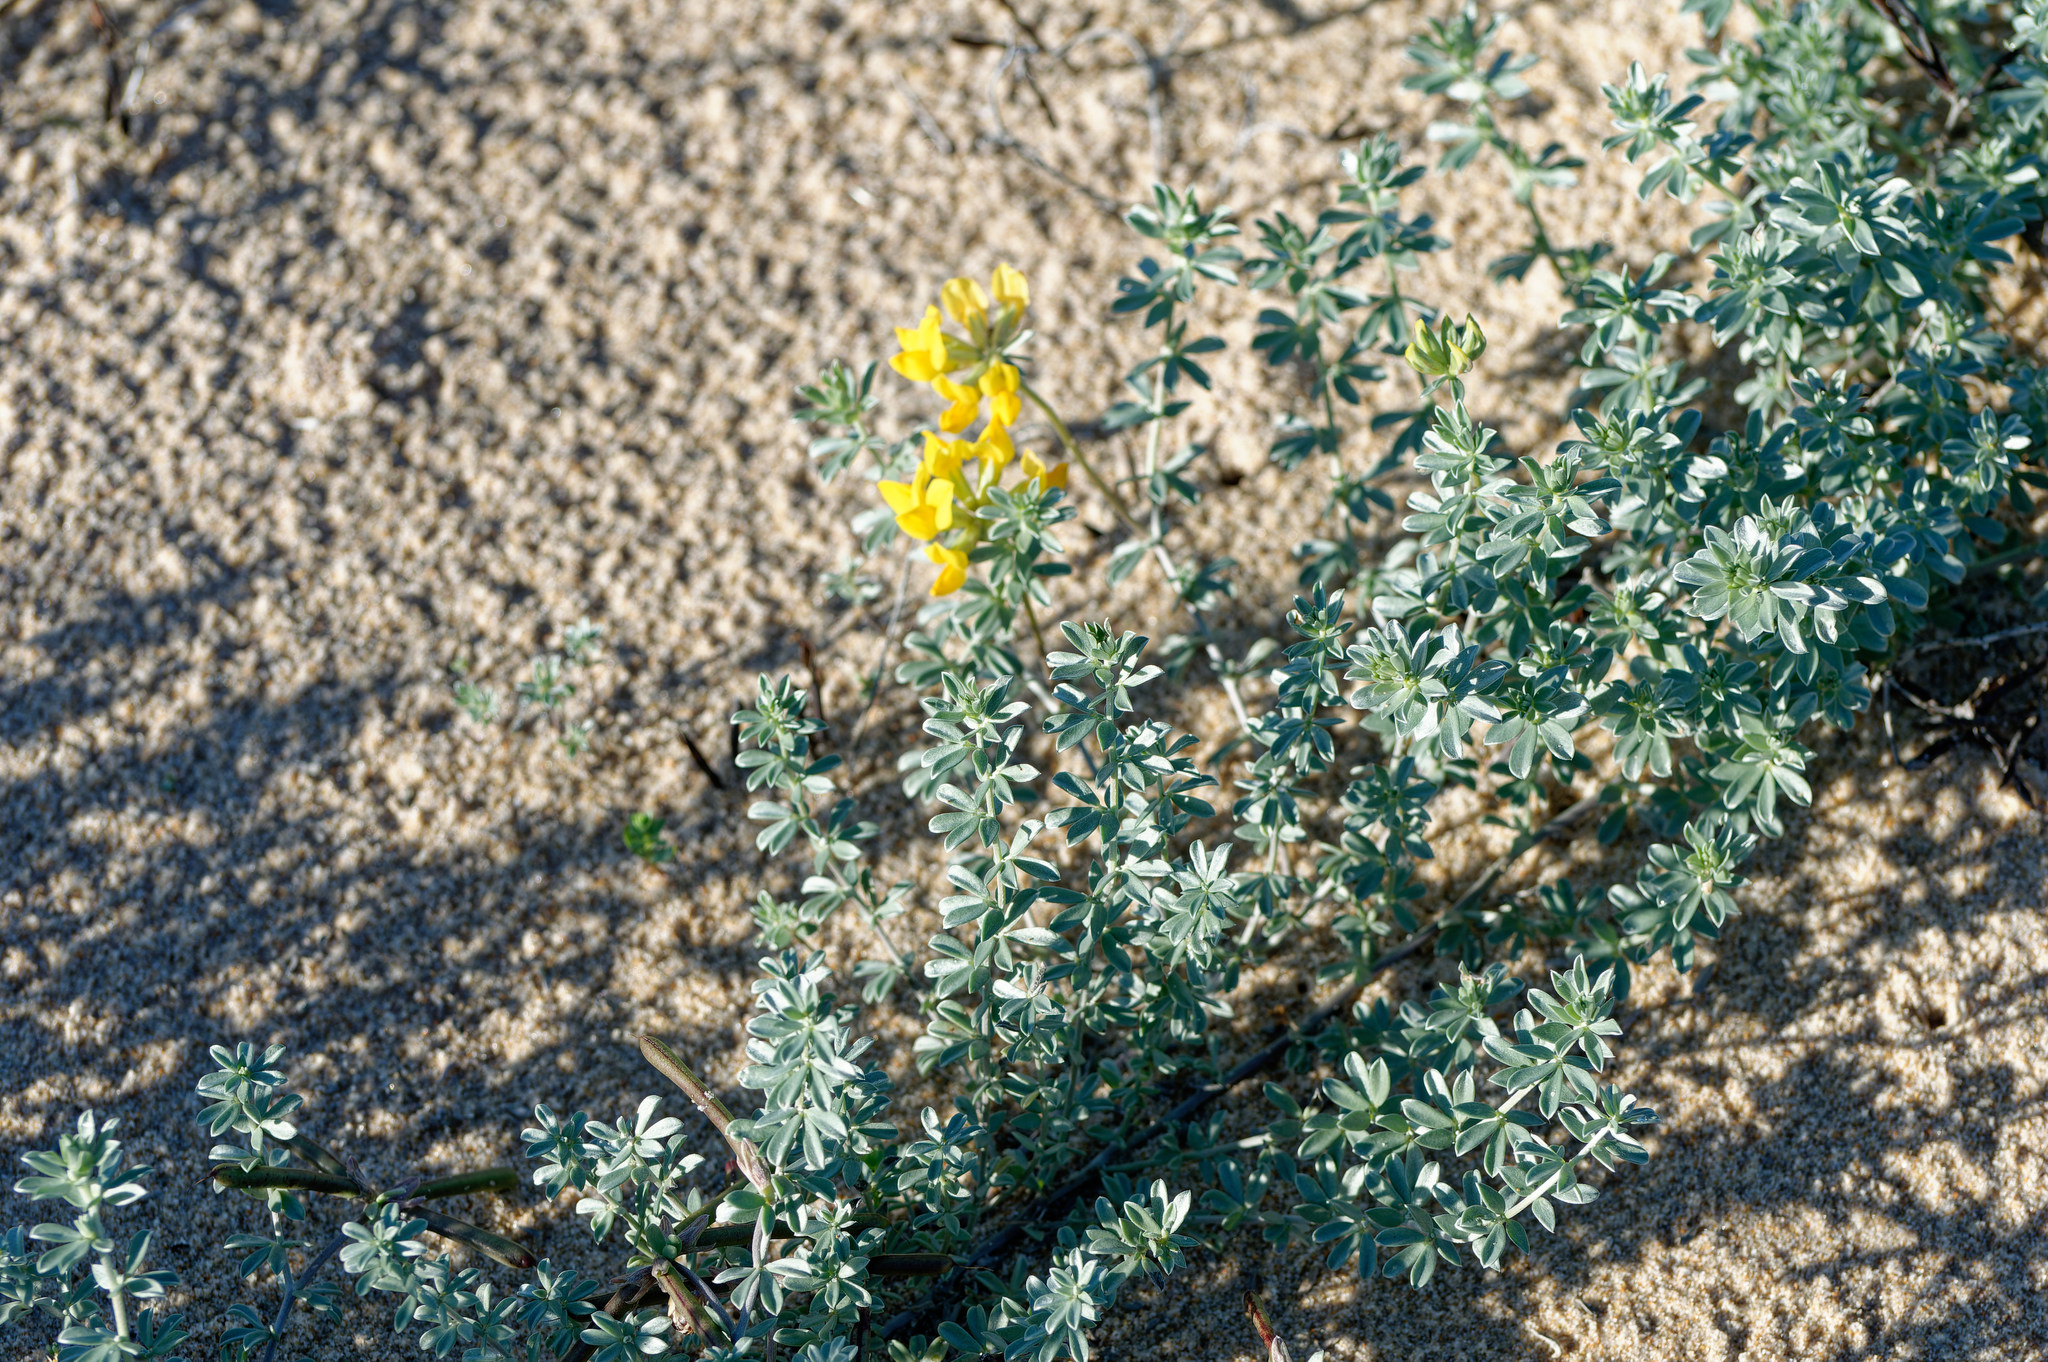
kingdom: Plantae
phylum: Tracheophyta
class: Magnoliopsida
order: Fabales
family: Fabaceae
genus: Lotus
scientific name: Lotus creticus
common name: Cretan bird's-foot trefoil
